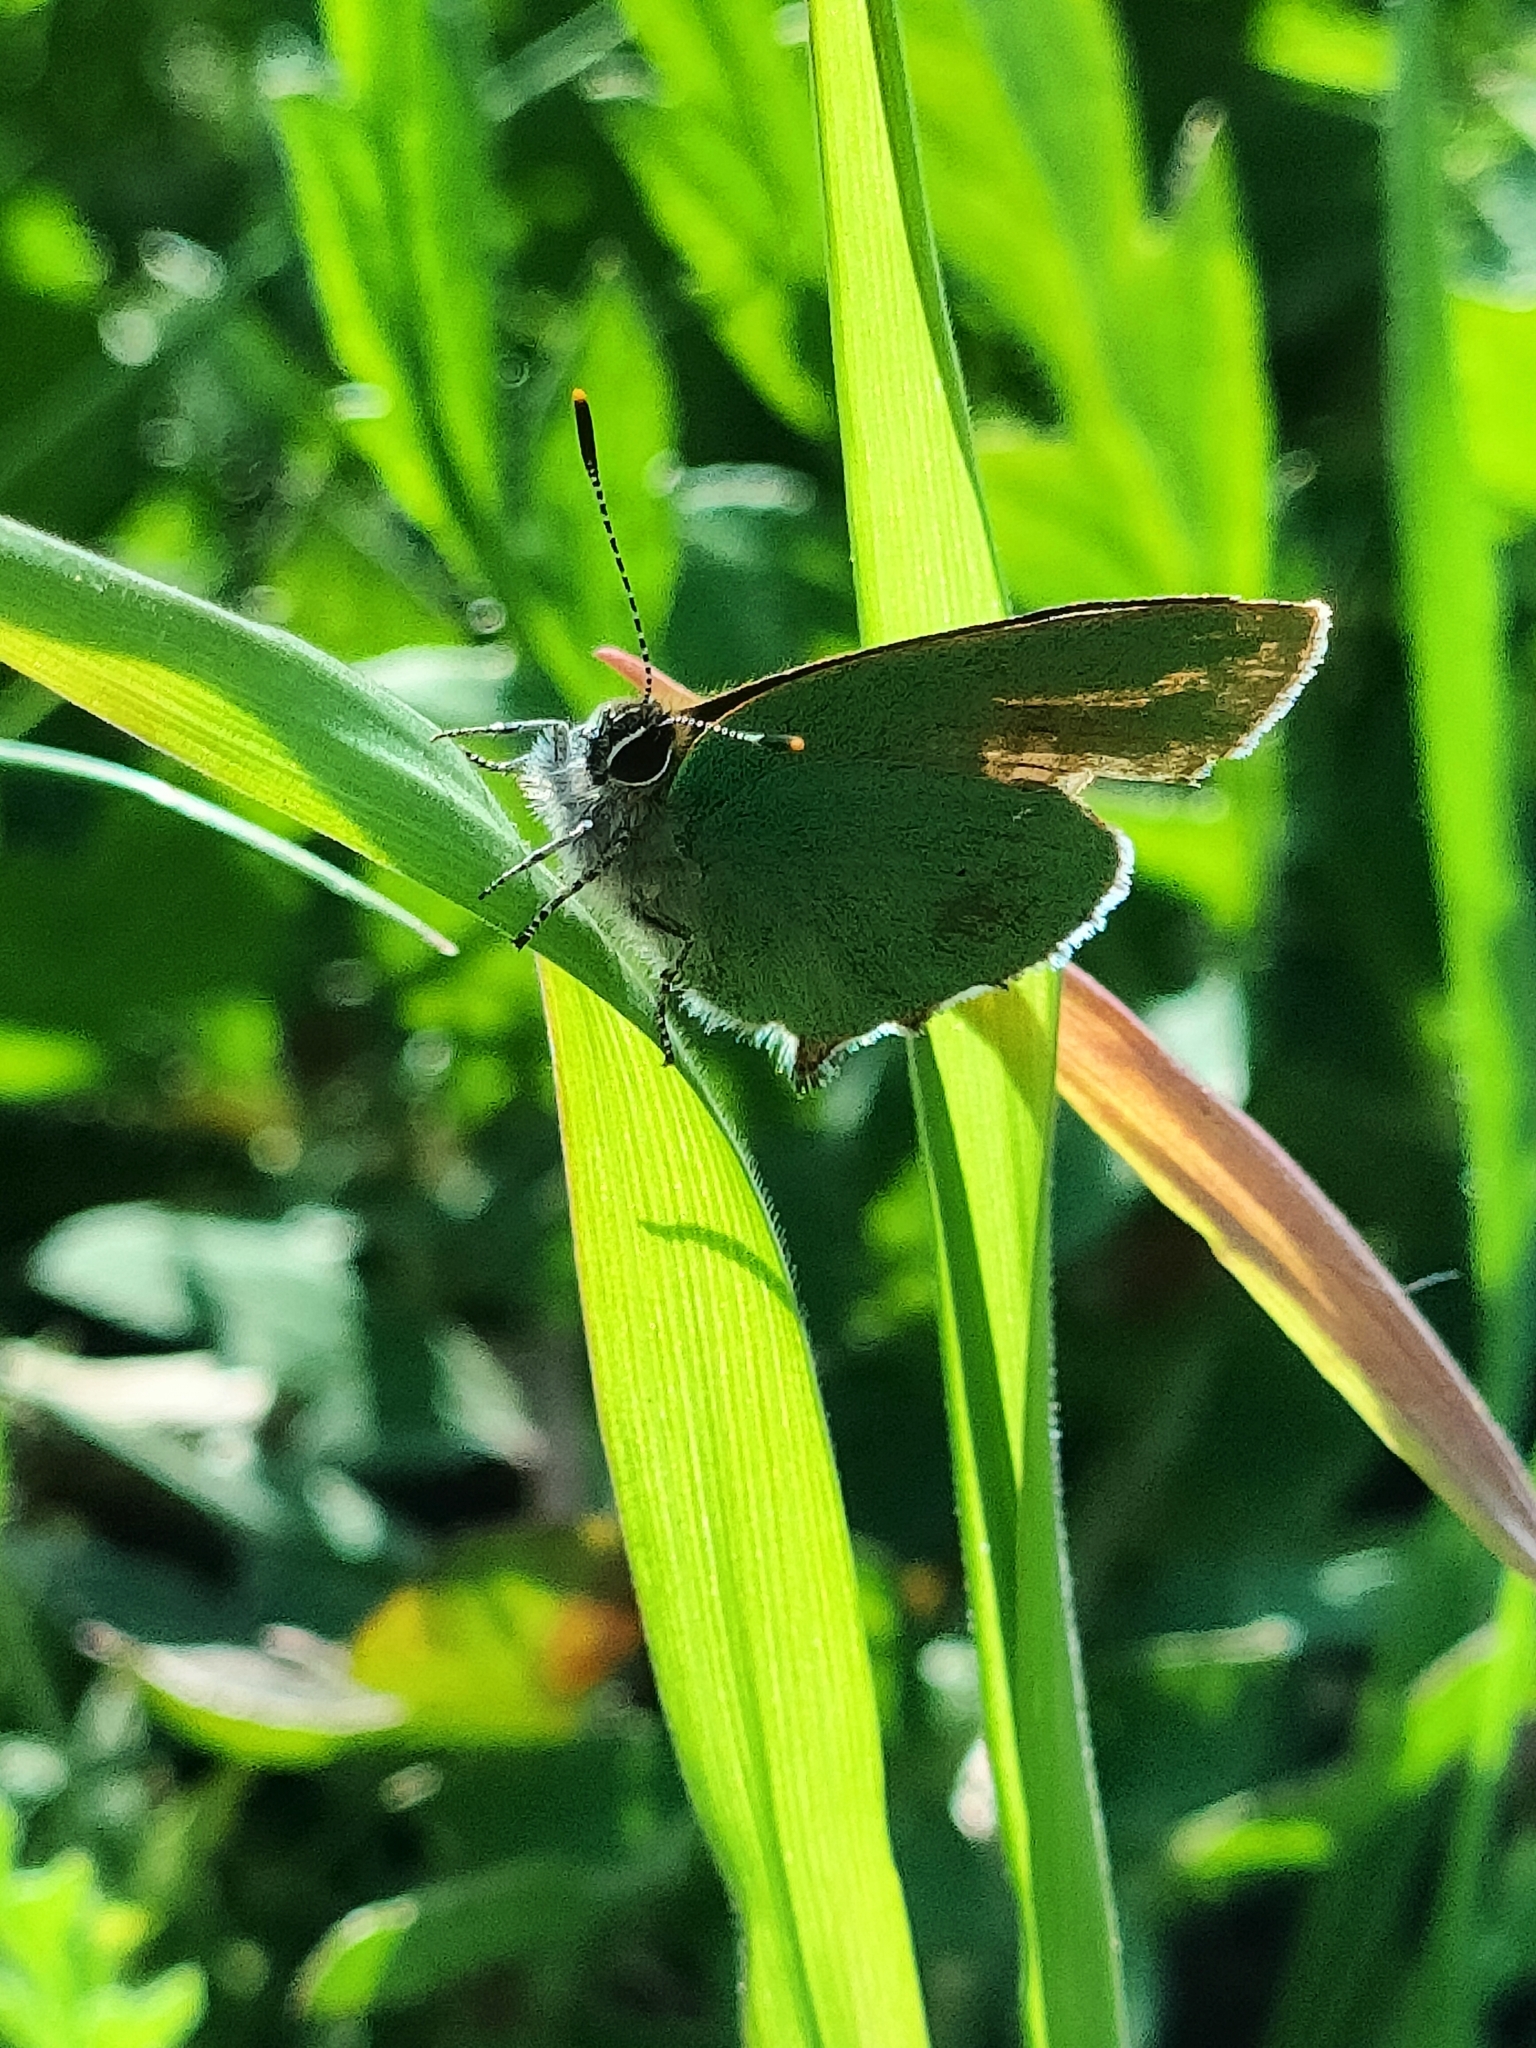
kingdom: Animalia
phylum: Arthropoda
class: Insecta
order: Lepidoptera
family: Lycaenidae
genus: Callophrys
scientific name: Callophrys rubi
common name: Green hairstreak
